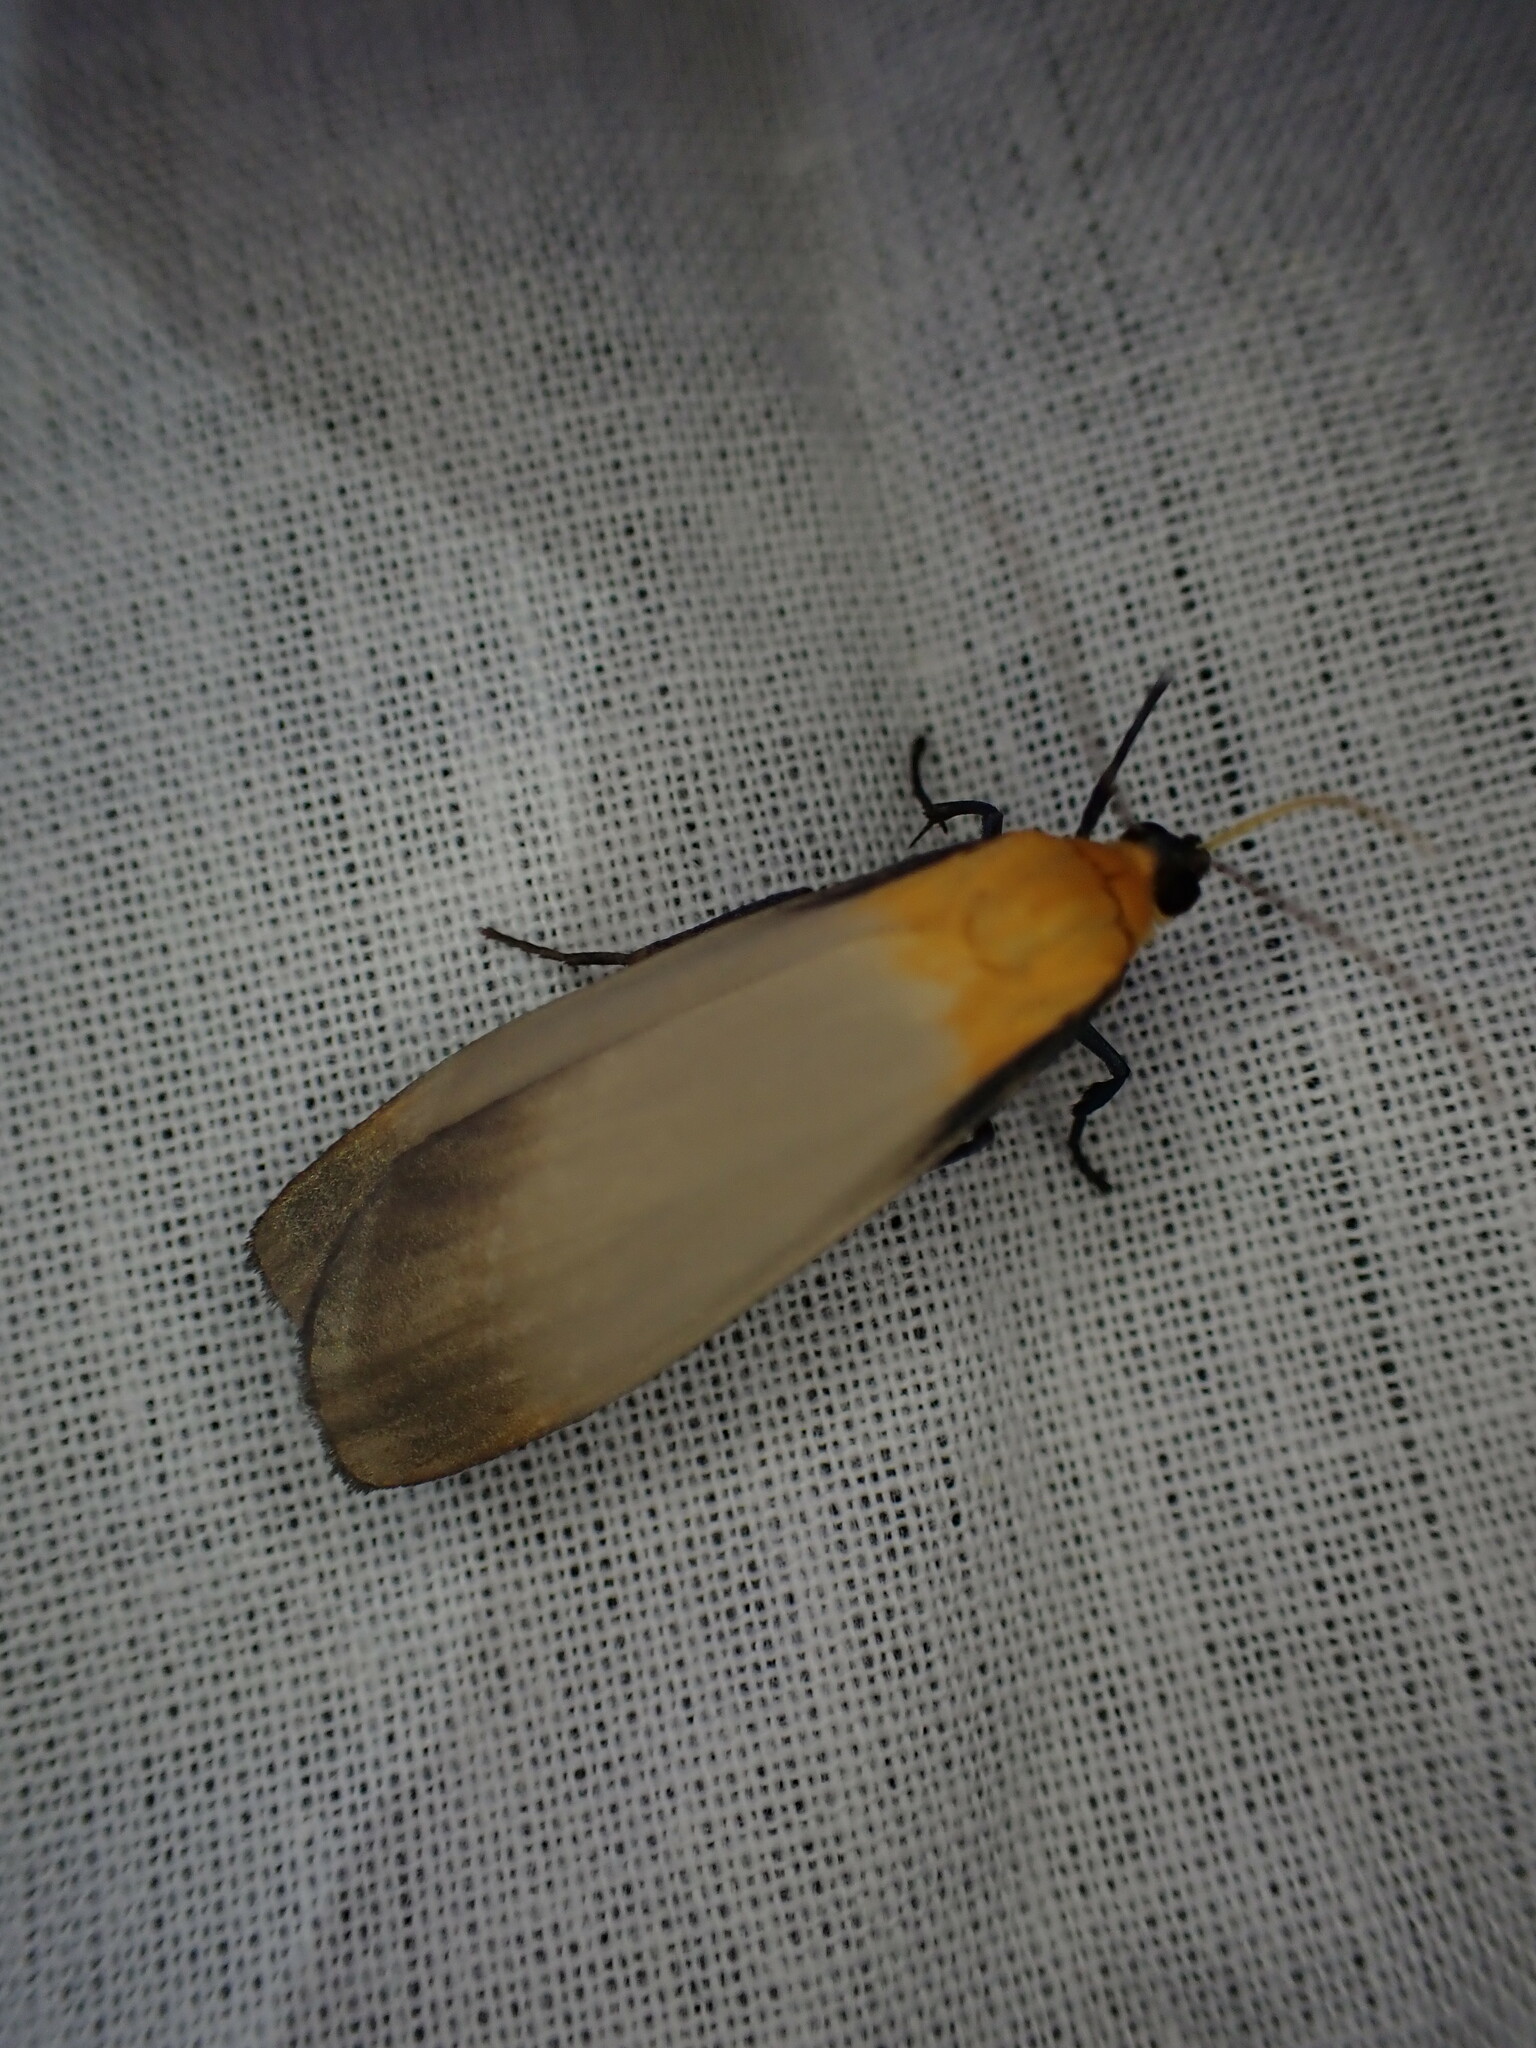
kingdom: Animalia
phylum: Arthropoda
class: Insecta
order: Lepidoptera
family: Erebidae
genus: Lithosia
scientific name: Lithosia quadra
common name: Four-spotted footman
